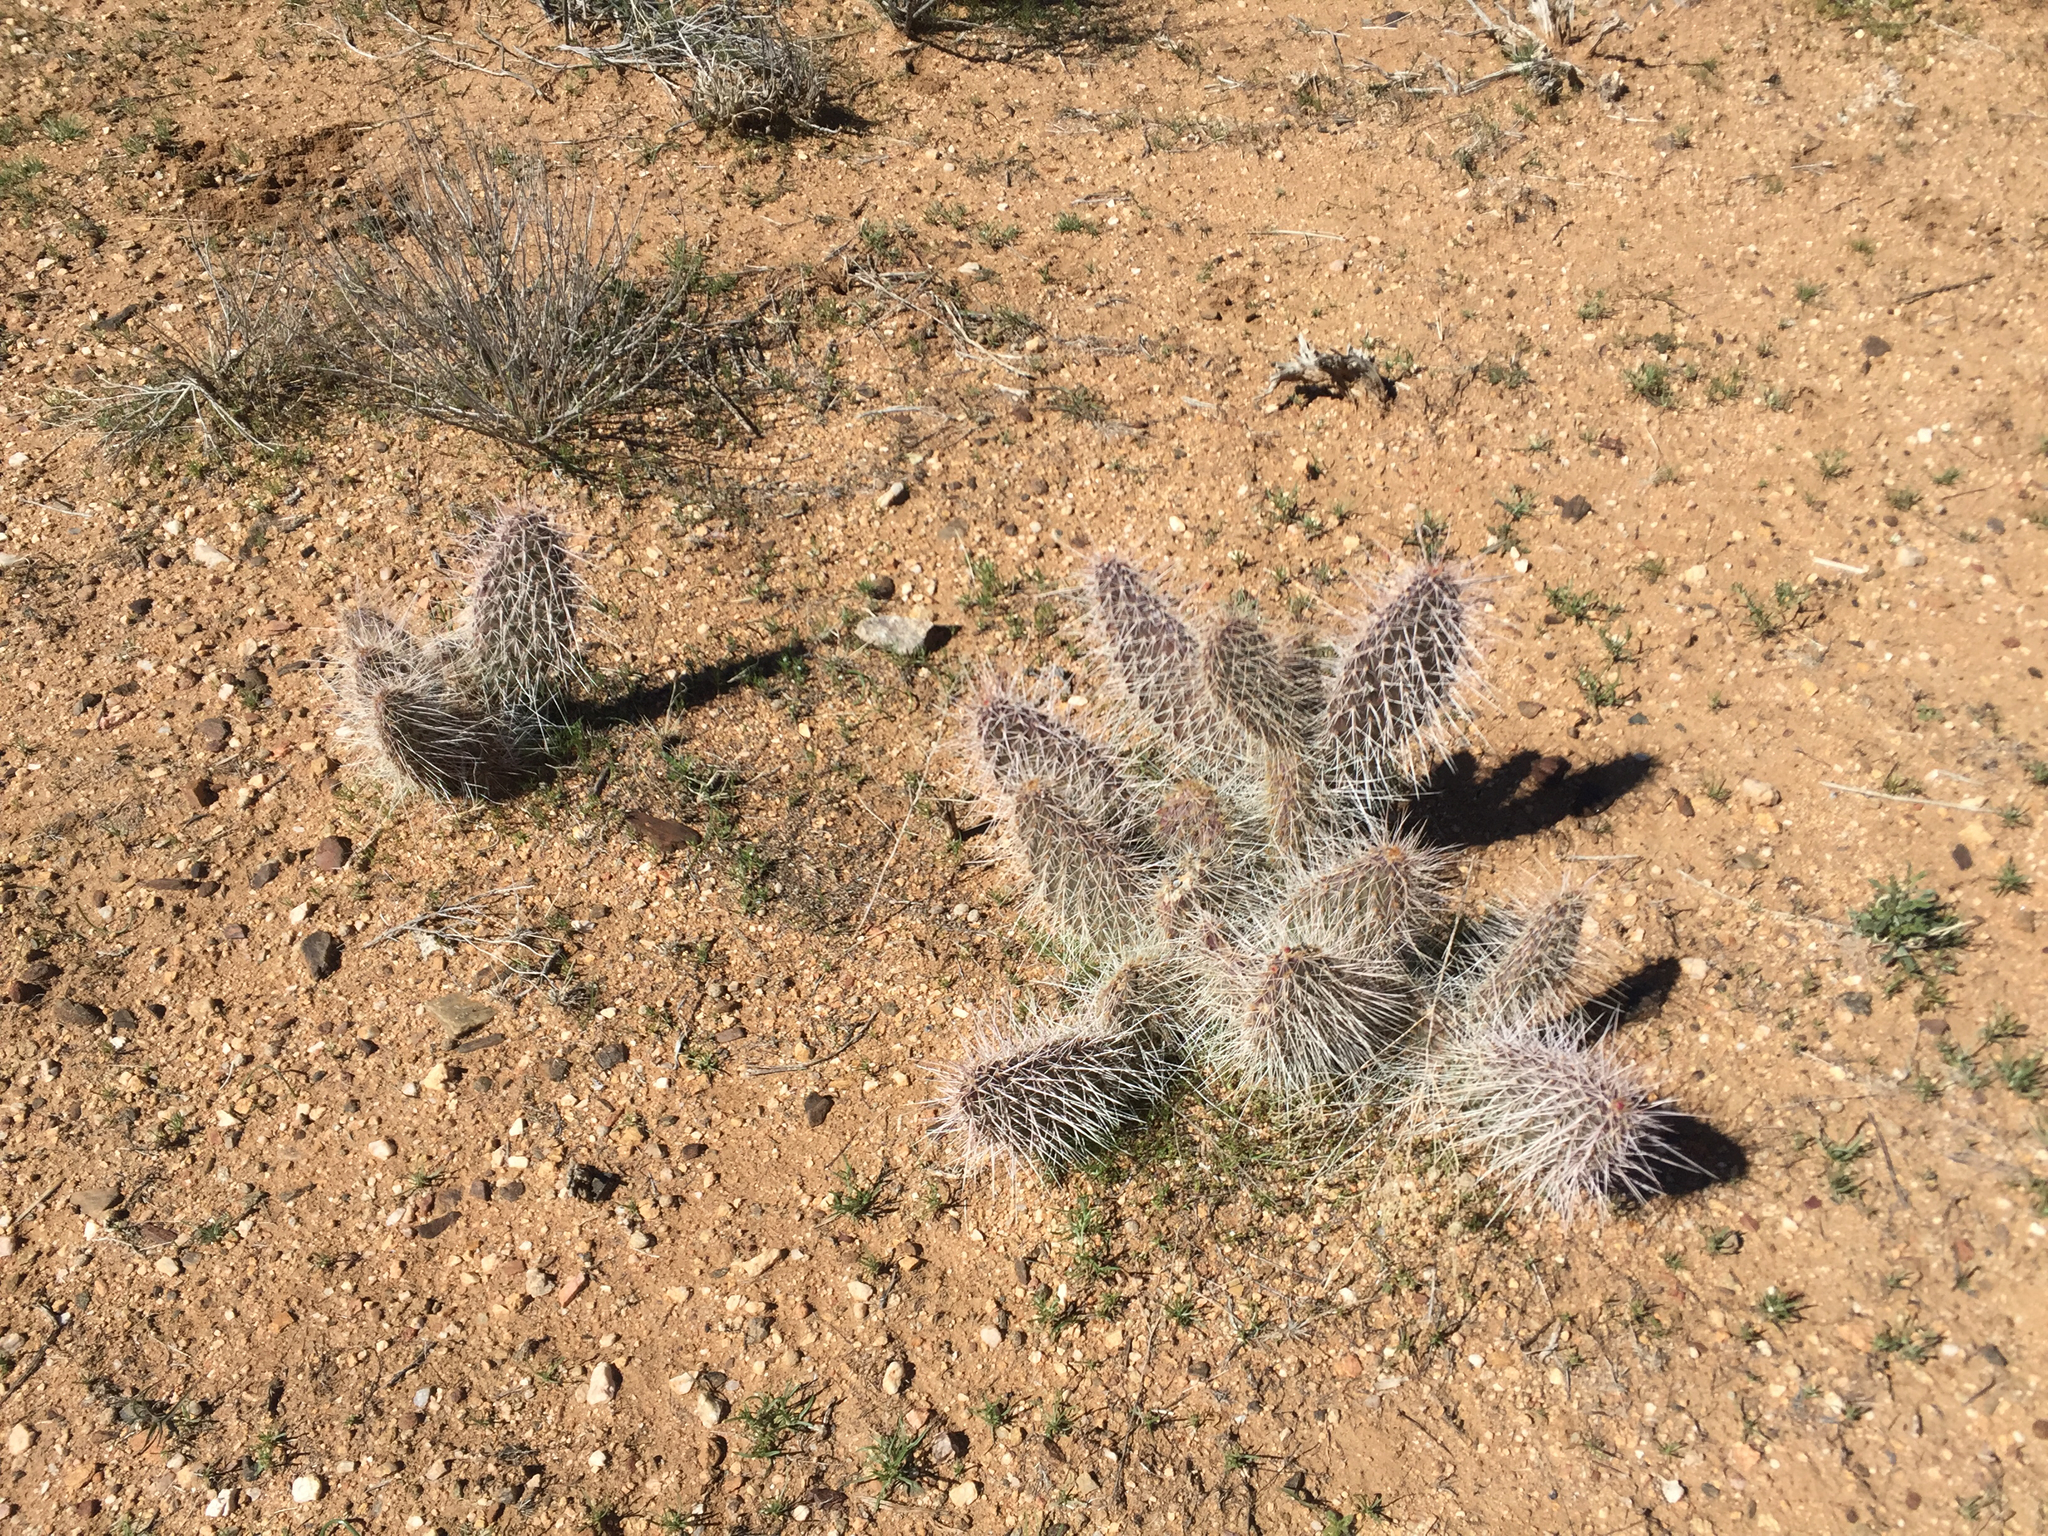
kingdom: Plantae
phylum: Tracheophyta
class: Magnoliopsida
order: Caryophyllales
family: Cactaceae
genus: Opuntia
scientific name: Opuntia polyacantha
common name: Plains prickly-pear
